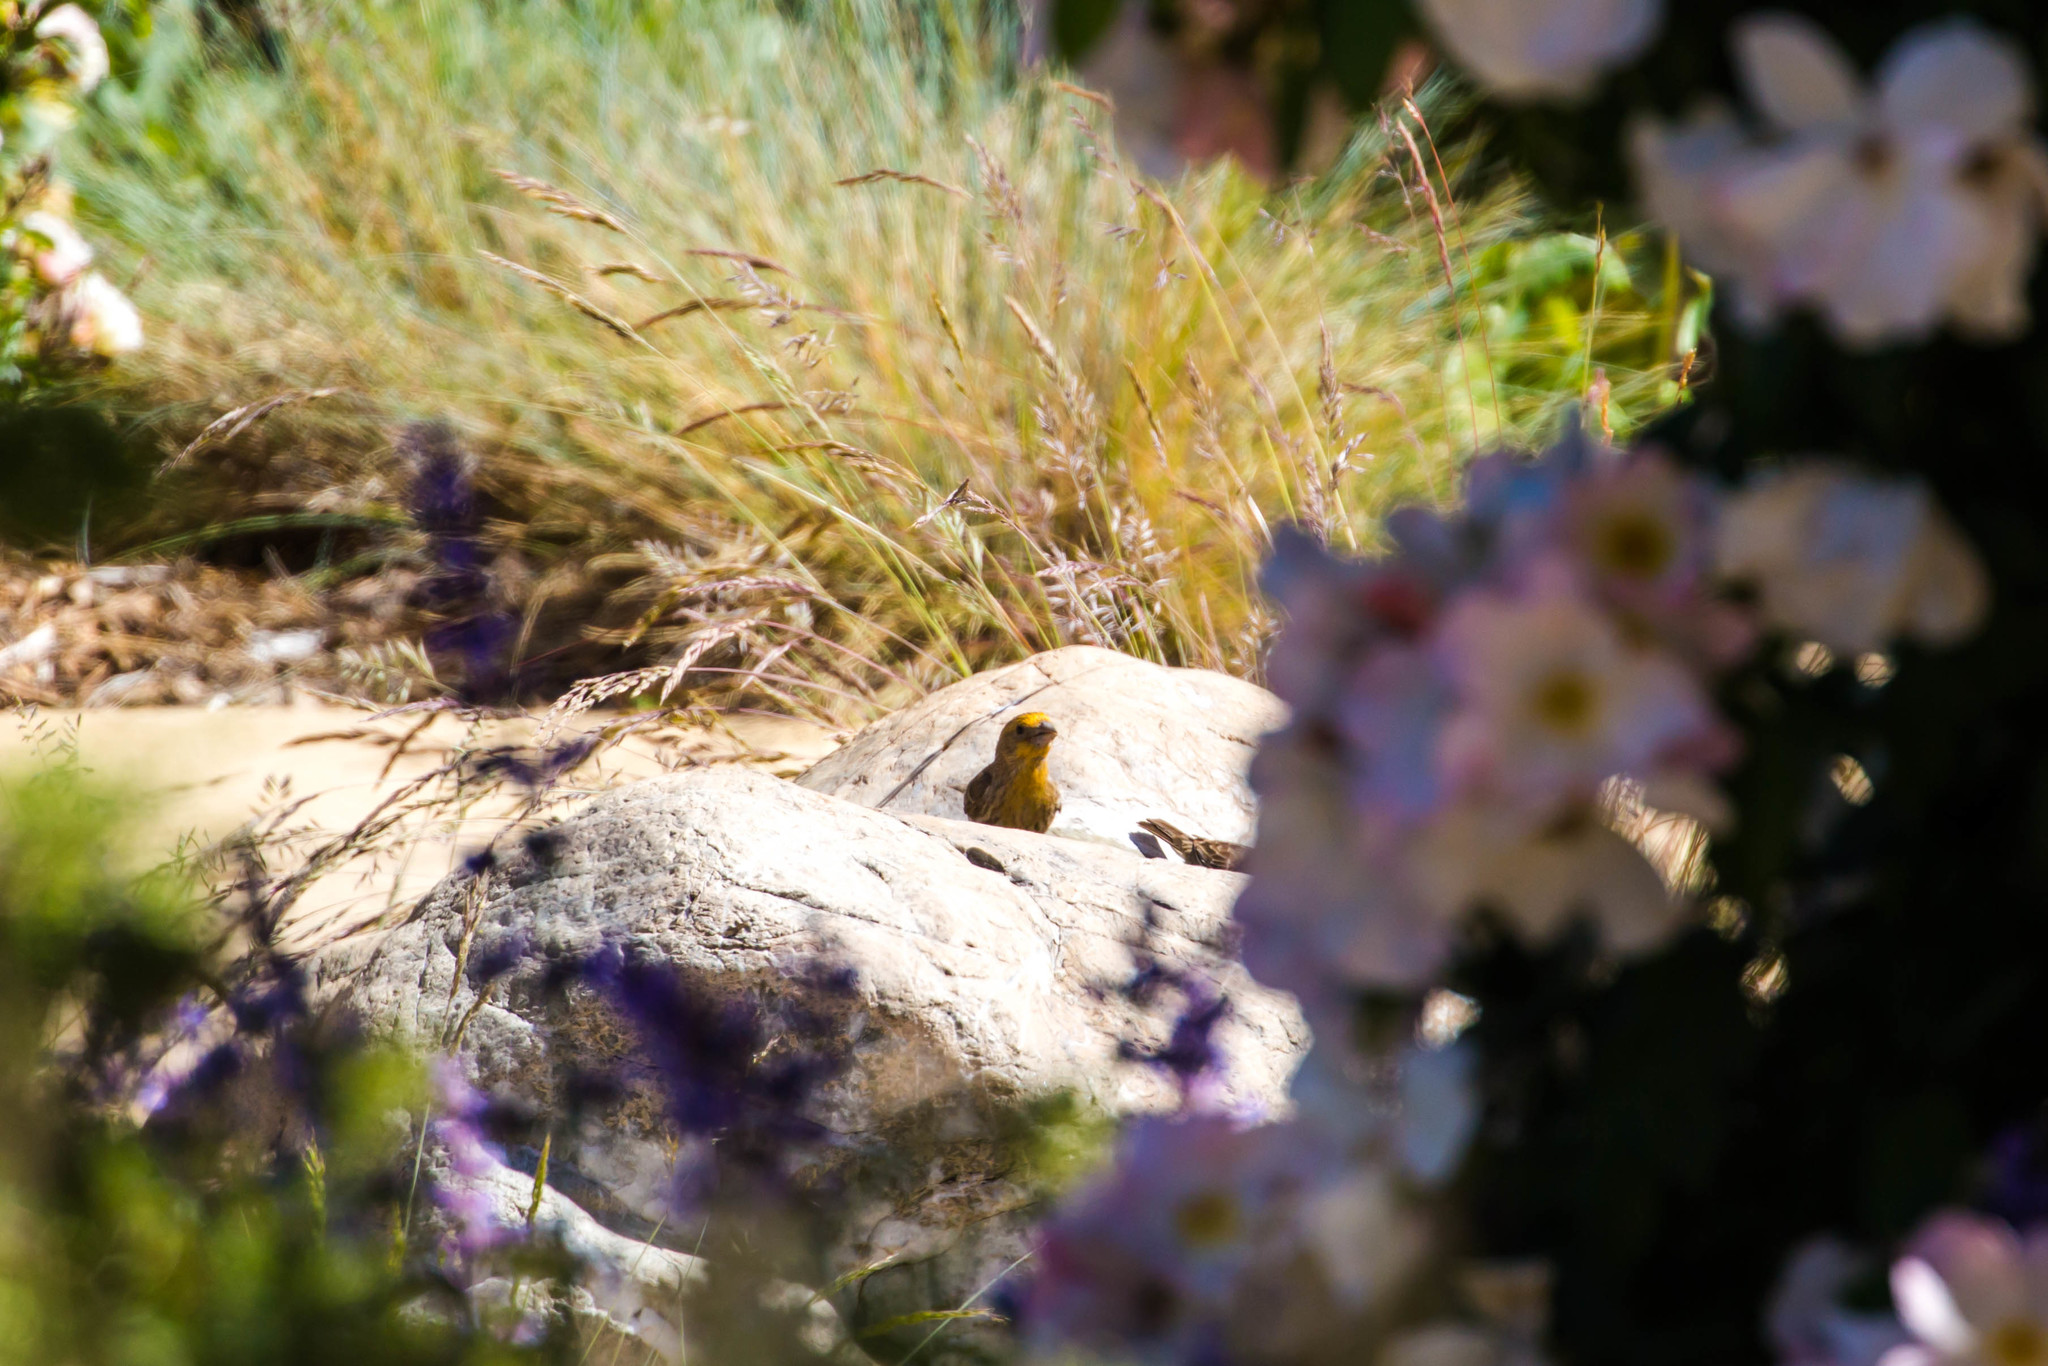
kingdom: Animalia
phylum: Chordata
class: Aves
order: Passeriformes
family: Fringillidae
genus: Haemorhous
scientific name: Haemorhous mexicanus
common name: House finch
